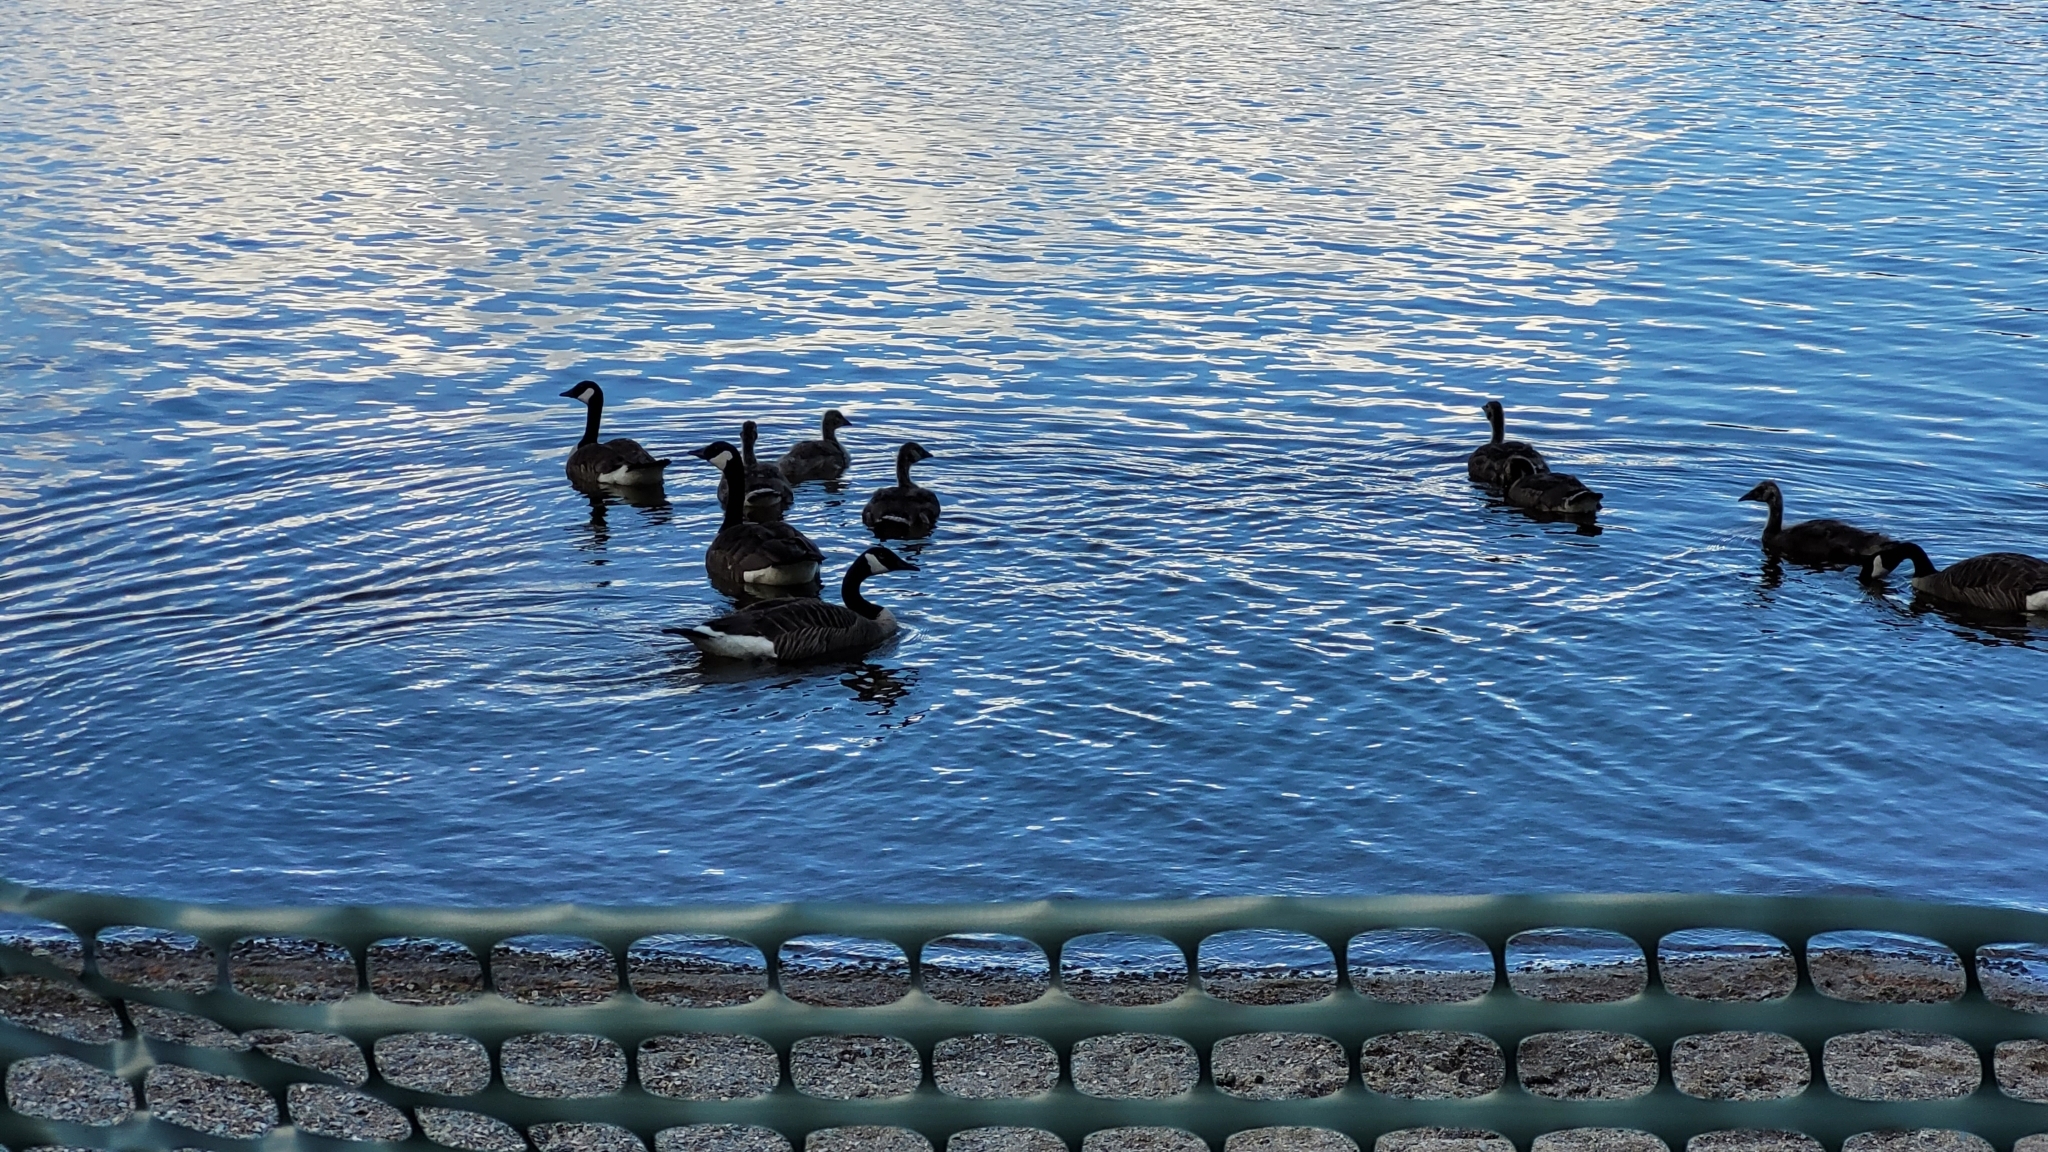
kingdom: Animalia
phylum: Chordata
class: Aves
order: Anseriformes
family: Anatidae
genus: Branta
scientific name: Branta canadensis
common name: Canada goose
